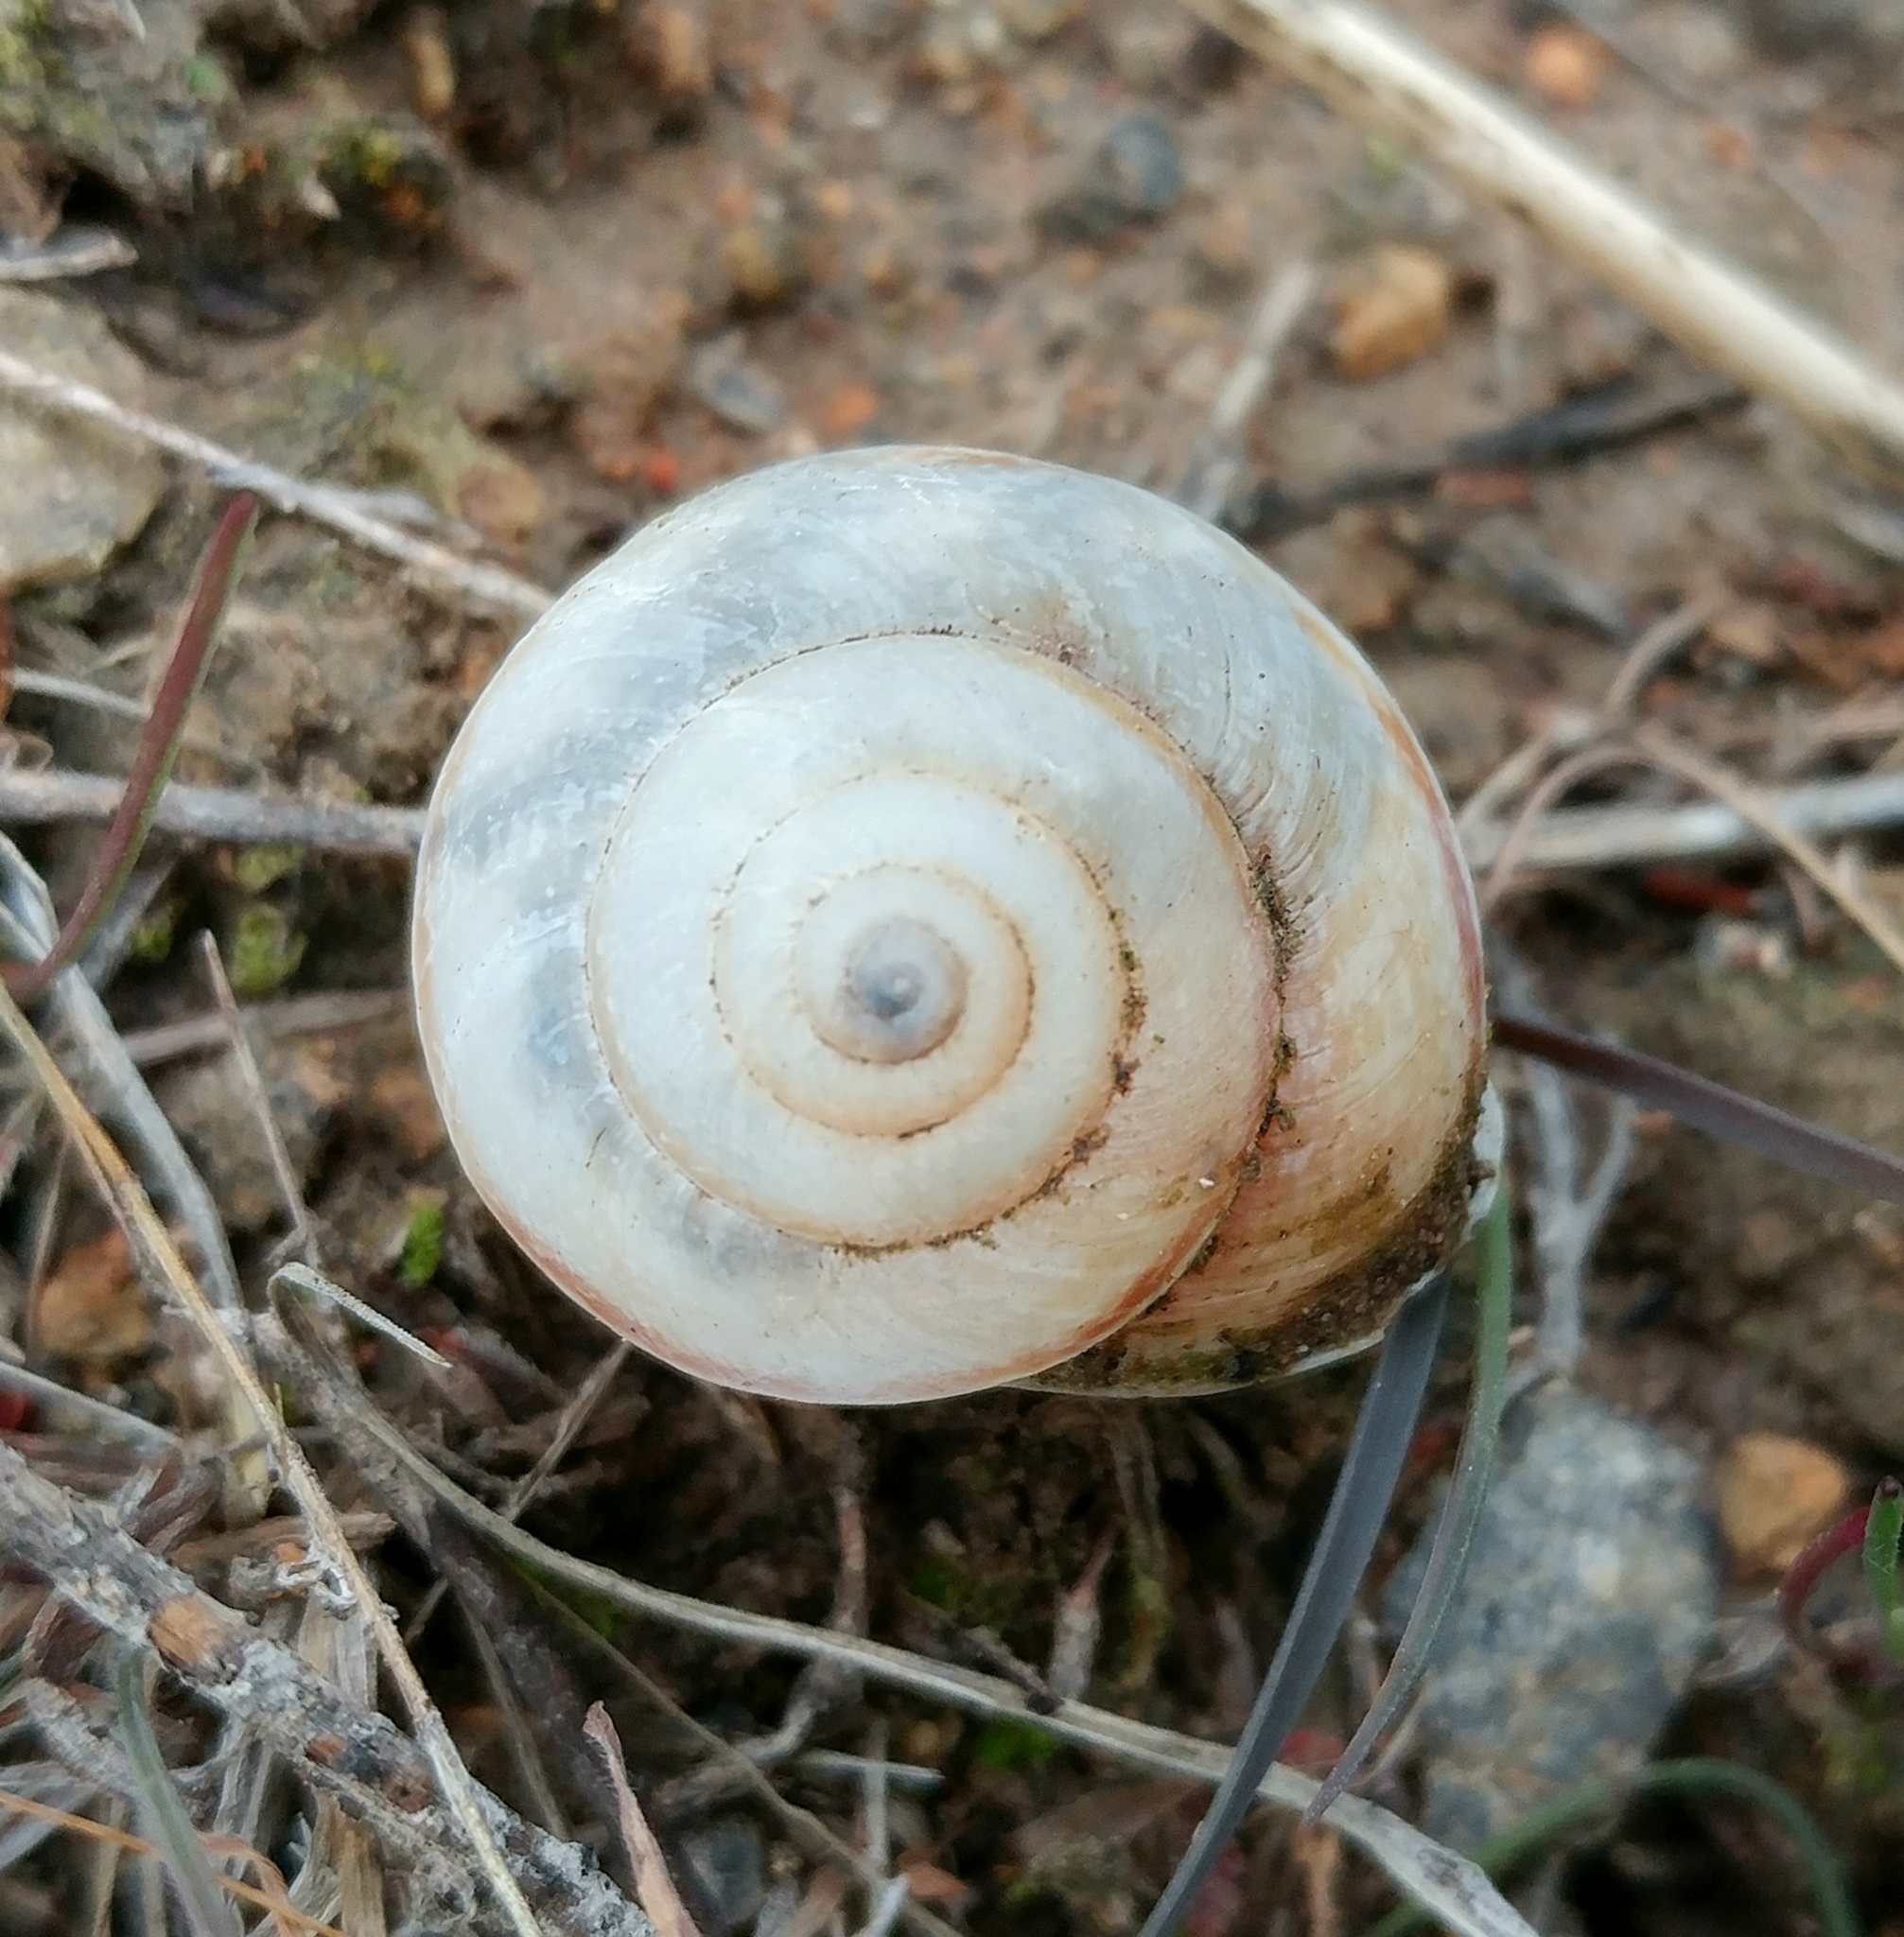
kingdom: Animalia
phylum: Mollusca
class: Gastropoda
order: Stylommatophora
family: Xanthonychidae
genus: Xerarionta
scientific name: Xerarionta stearnsiana
